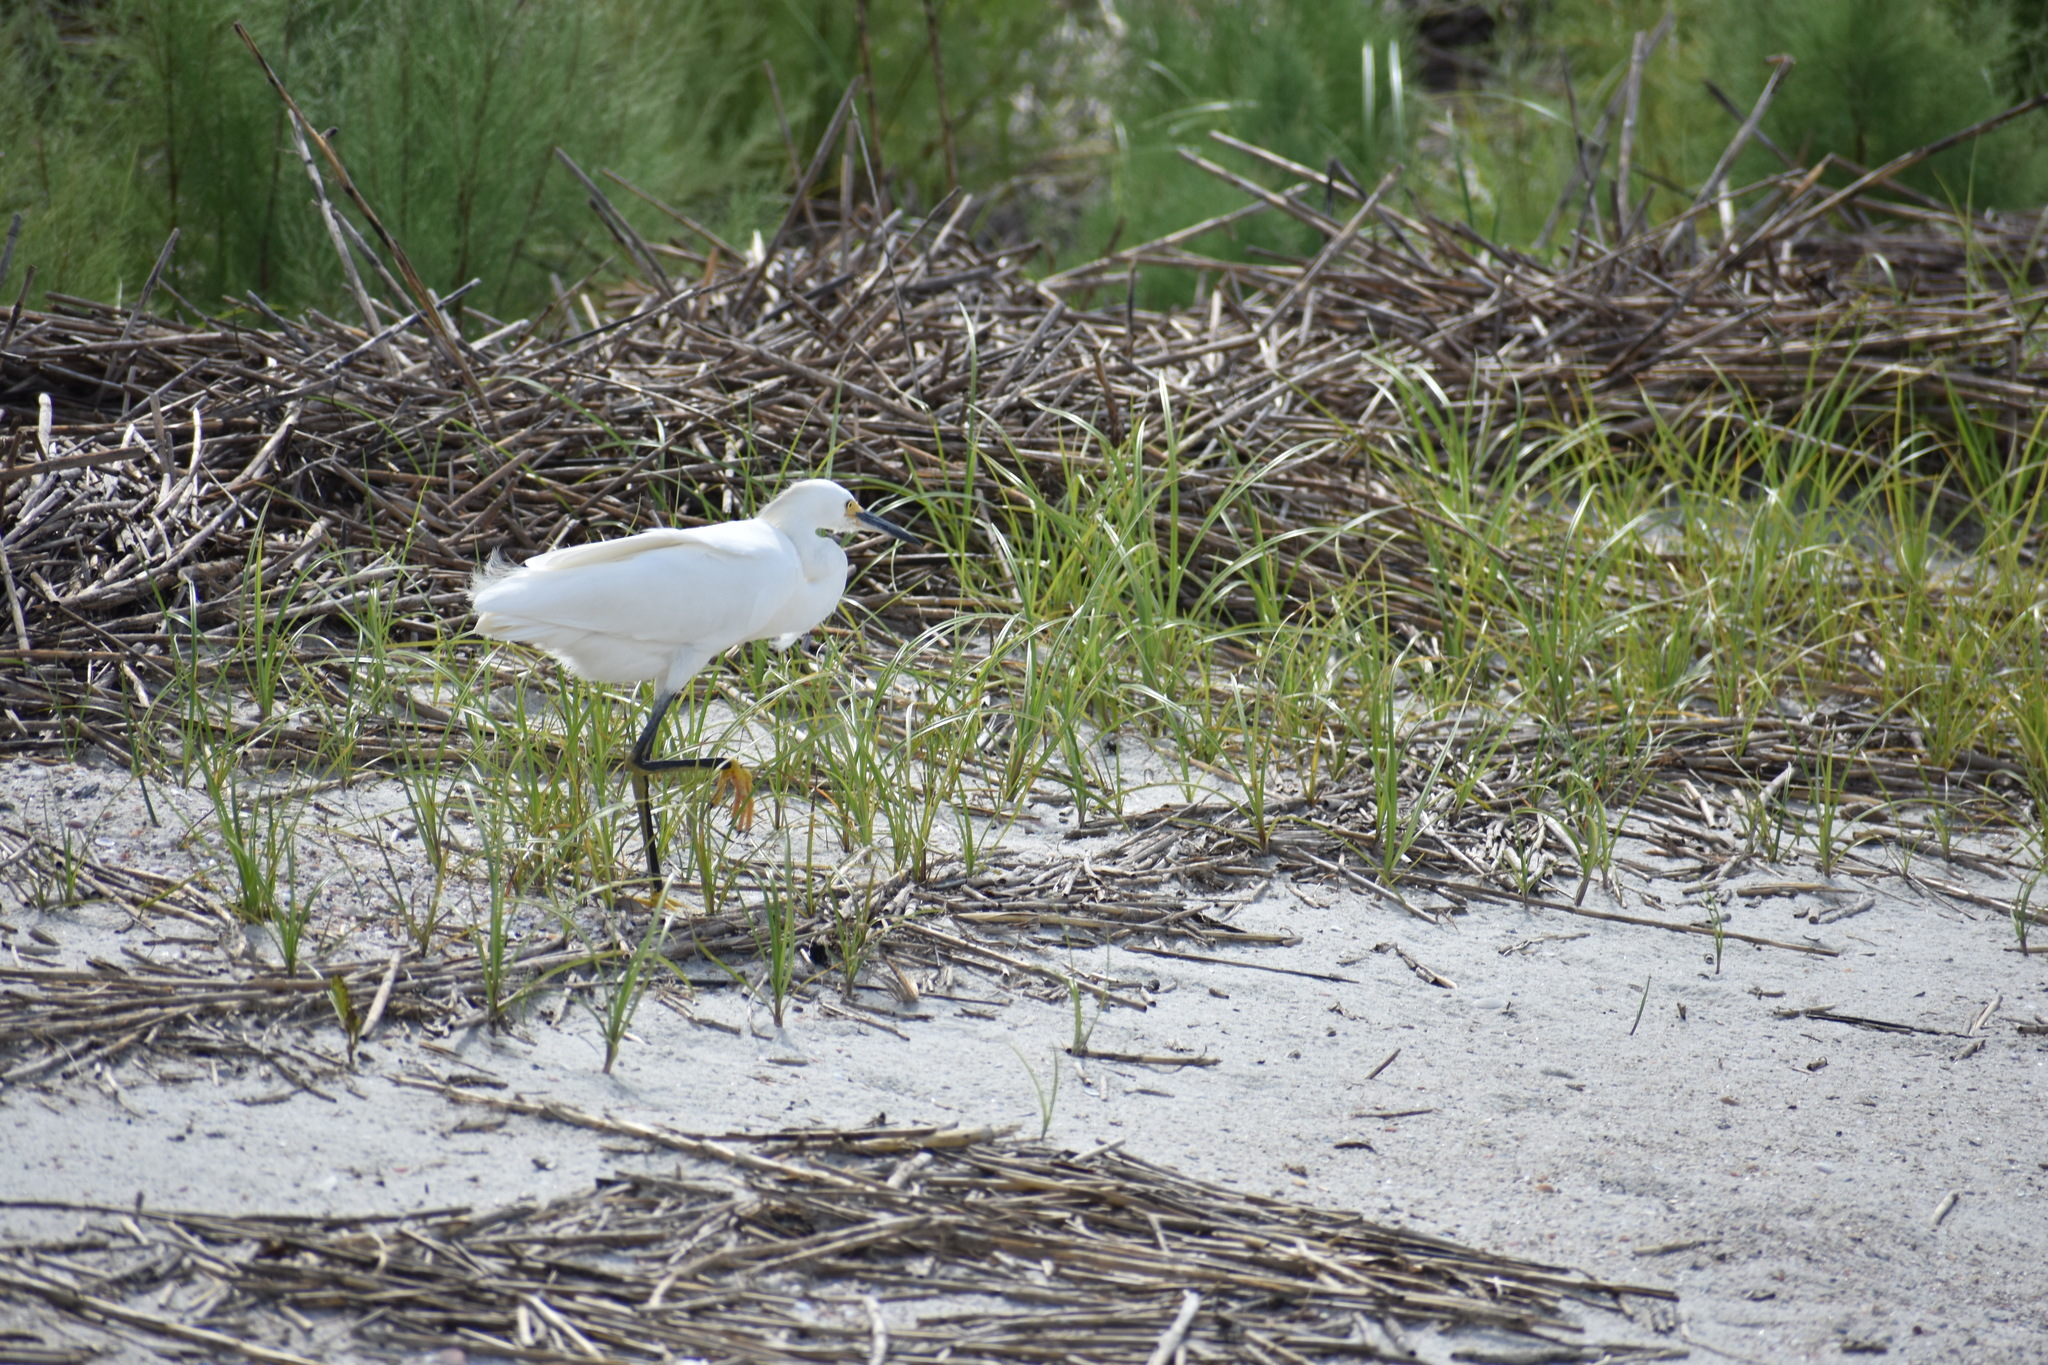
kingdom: Animalia
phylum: Chordata
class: Aves
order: Pelecaniformes
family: Ardeidae
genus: Egretta
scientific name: Egretta thula
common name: Snowy egret
